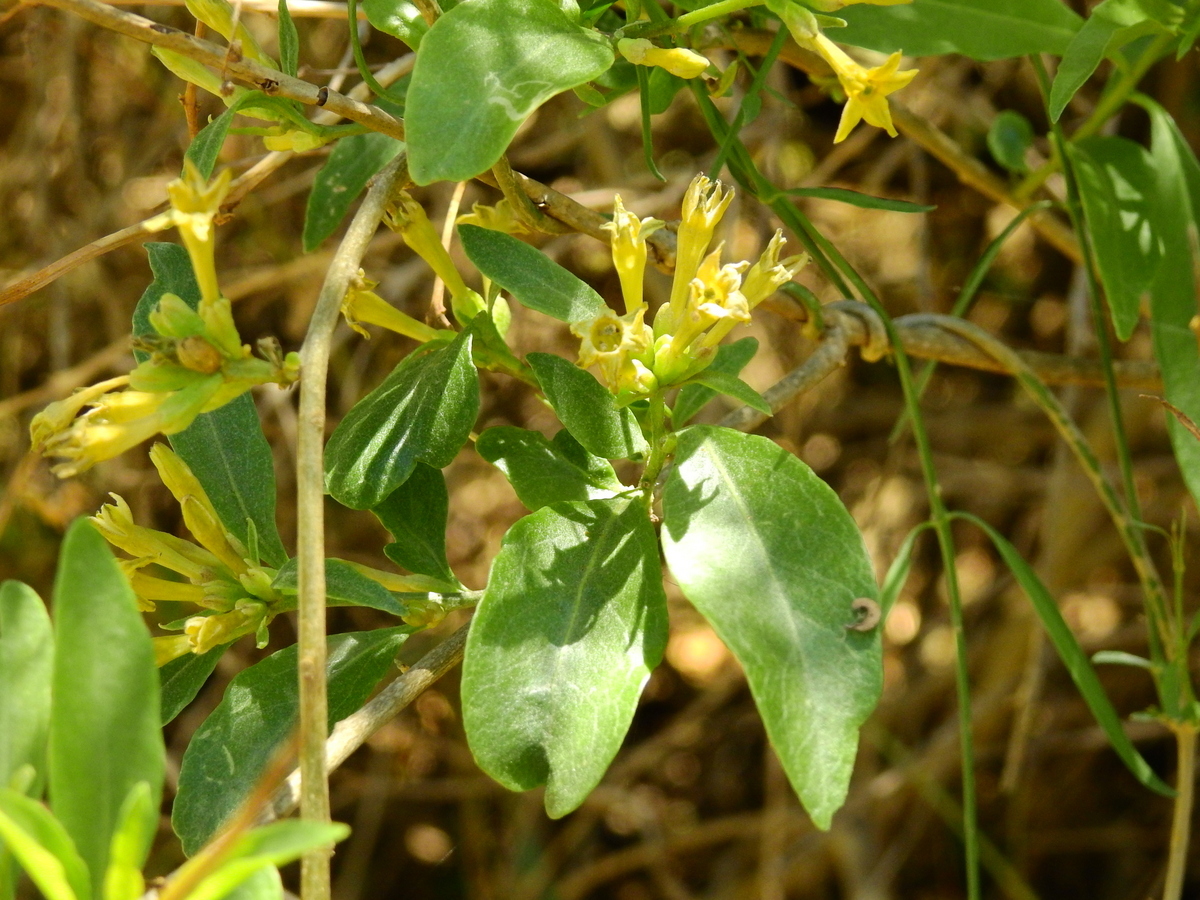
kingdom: Plantae
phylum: Tracheophyta
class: Magnoliopsida
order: Solanales
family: Solanaceae
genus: Cestrum
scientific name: Cestrum parqui
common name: Chilean cestrum
